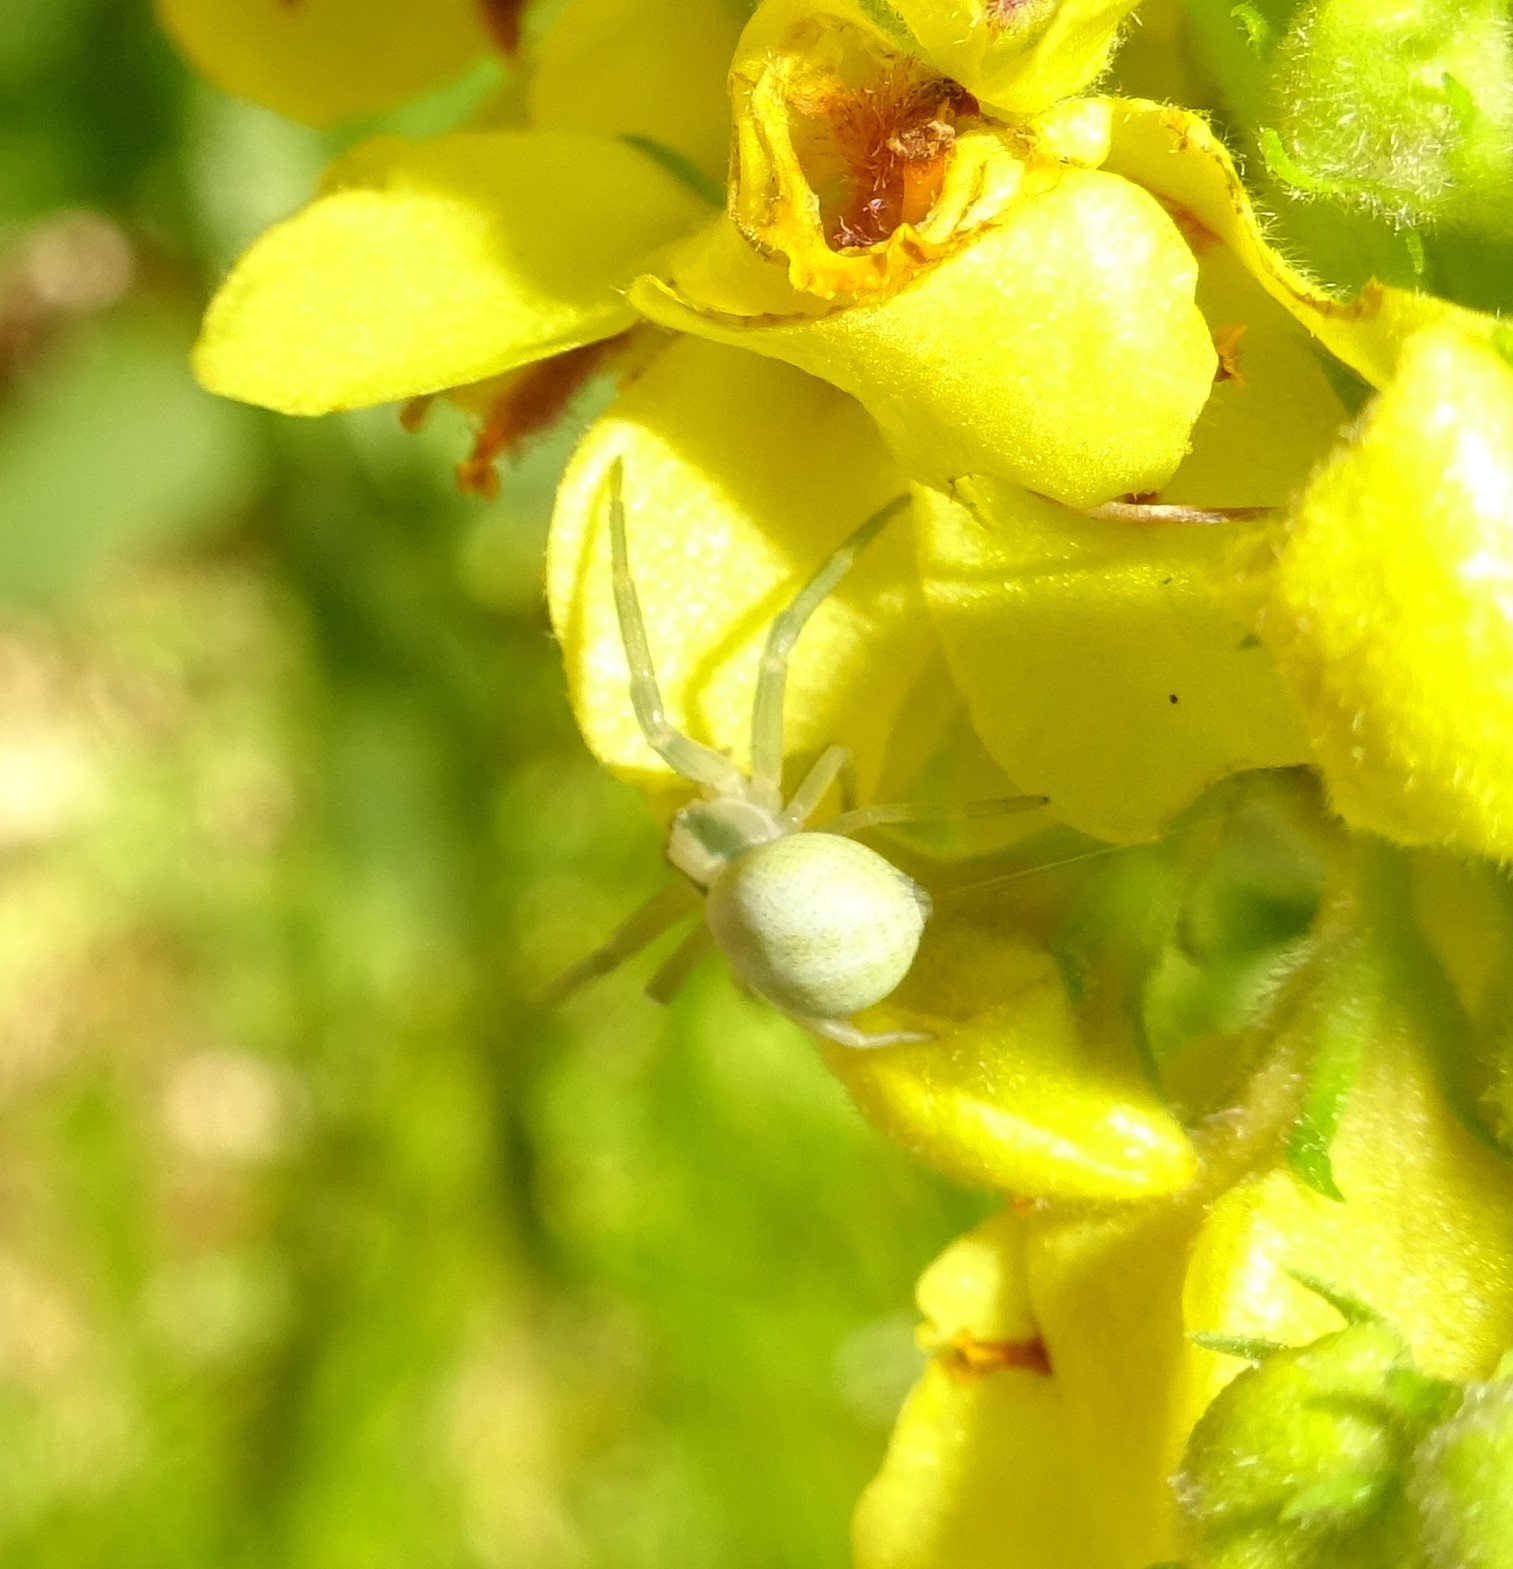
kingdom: Animalia
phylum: Arthropoda
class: Arachnida
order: Araneae
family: Thomisidae
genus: Misumena
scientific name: Misumena vatia
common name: Goldenrod crab spider
